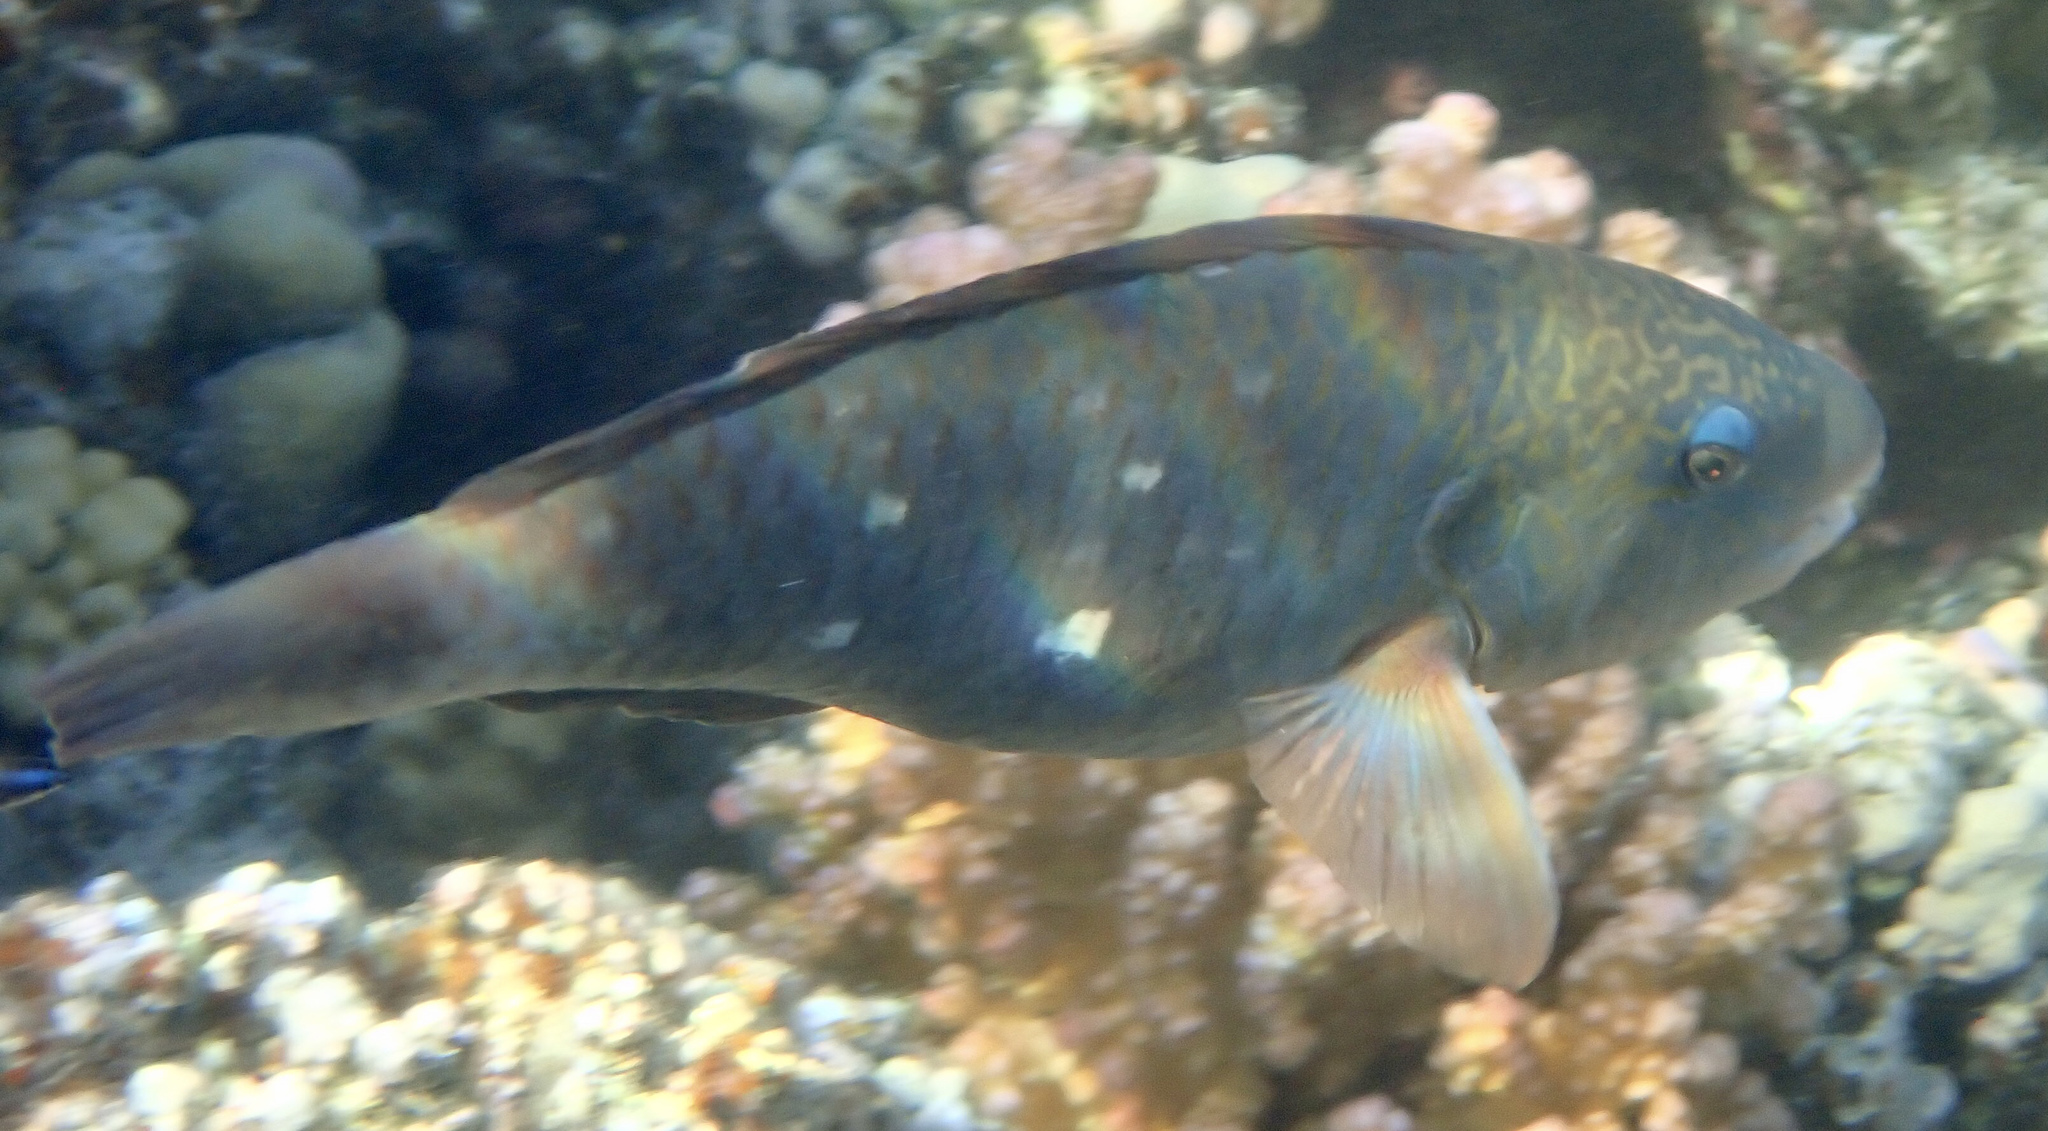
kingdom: Animalia
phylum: Chordata
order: Perciformes
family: Scaridae
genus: Chlorurus
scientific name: Chlorurus sordidus
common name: Bullethead parrotfish
